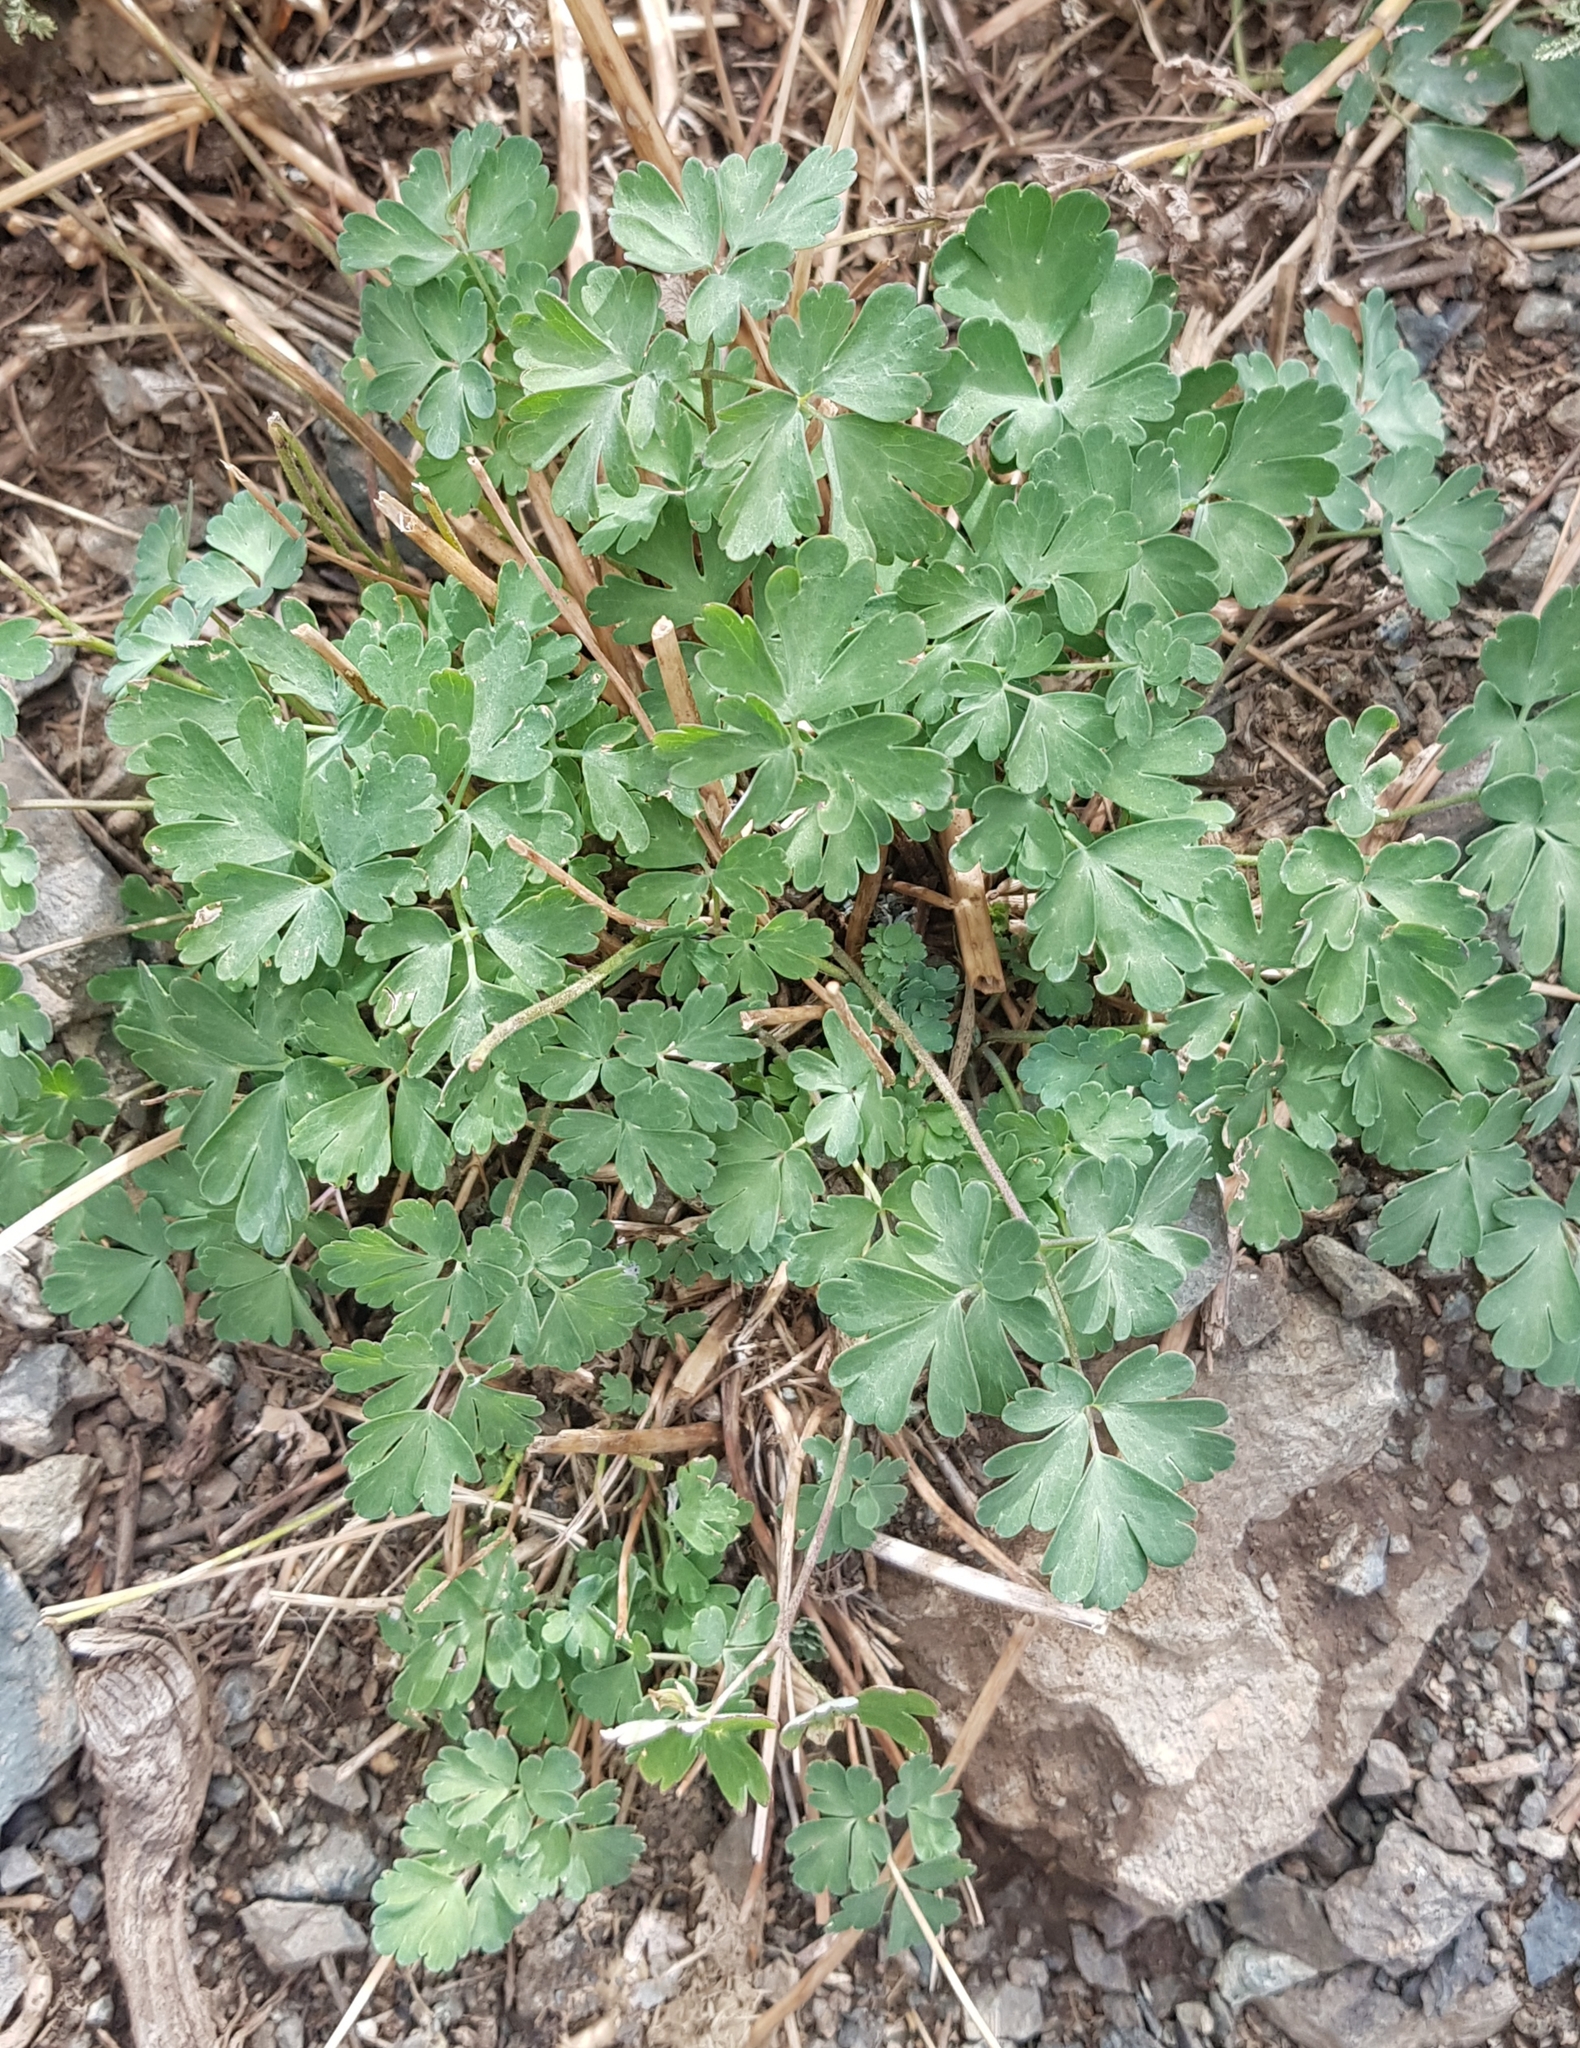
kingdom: Plantae
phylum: Tracheophyta
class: Magnoliopsida
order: Ranunculales
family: Ranunculaceae
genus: Aquilegia
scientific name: Aquilegia viridiflora
